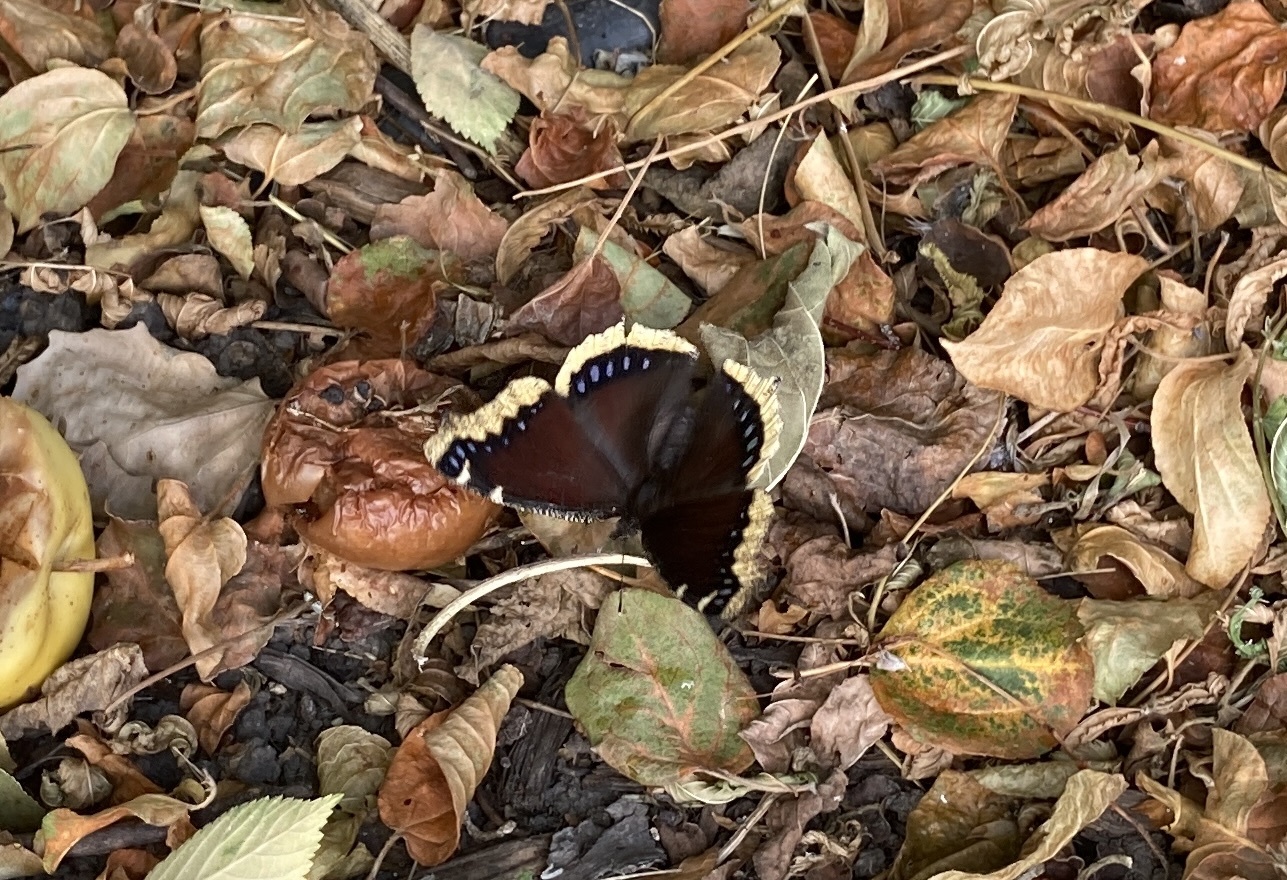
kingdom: Animalia
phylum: Arthropoda
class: Insecta
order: Lepidoptera
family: Nymphalidae
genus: Nymphalis
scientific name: Nymphalis antiopa
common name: Camberwell beauty
